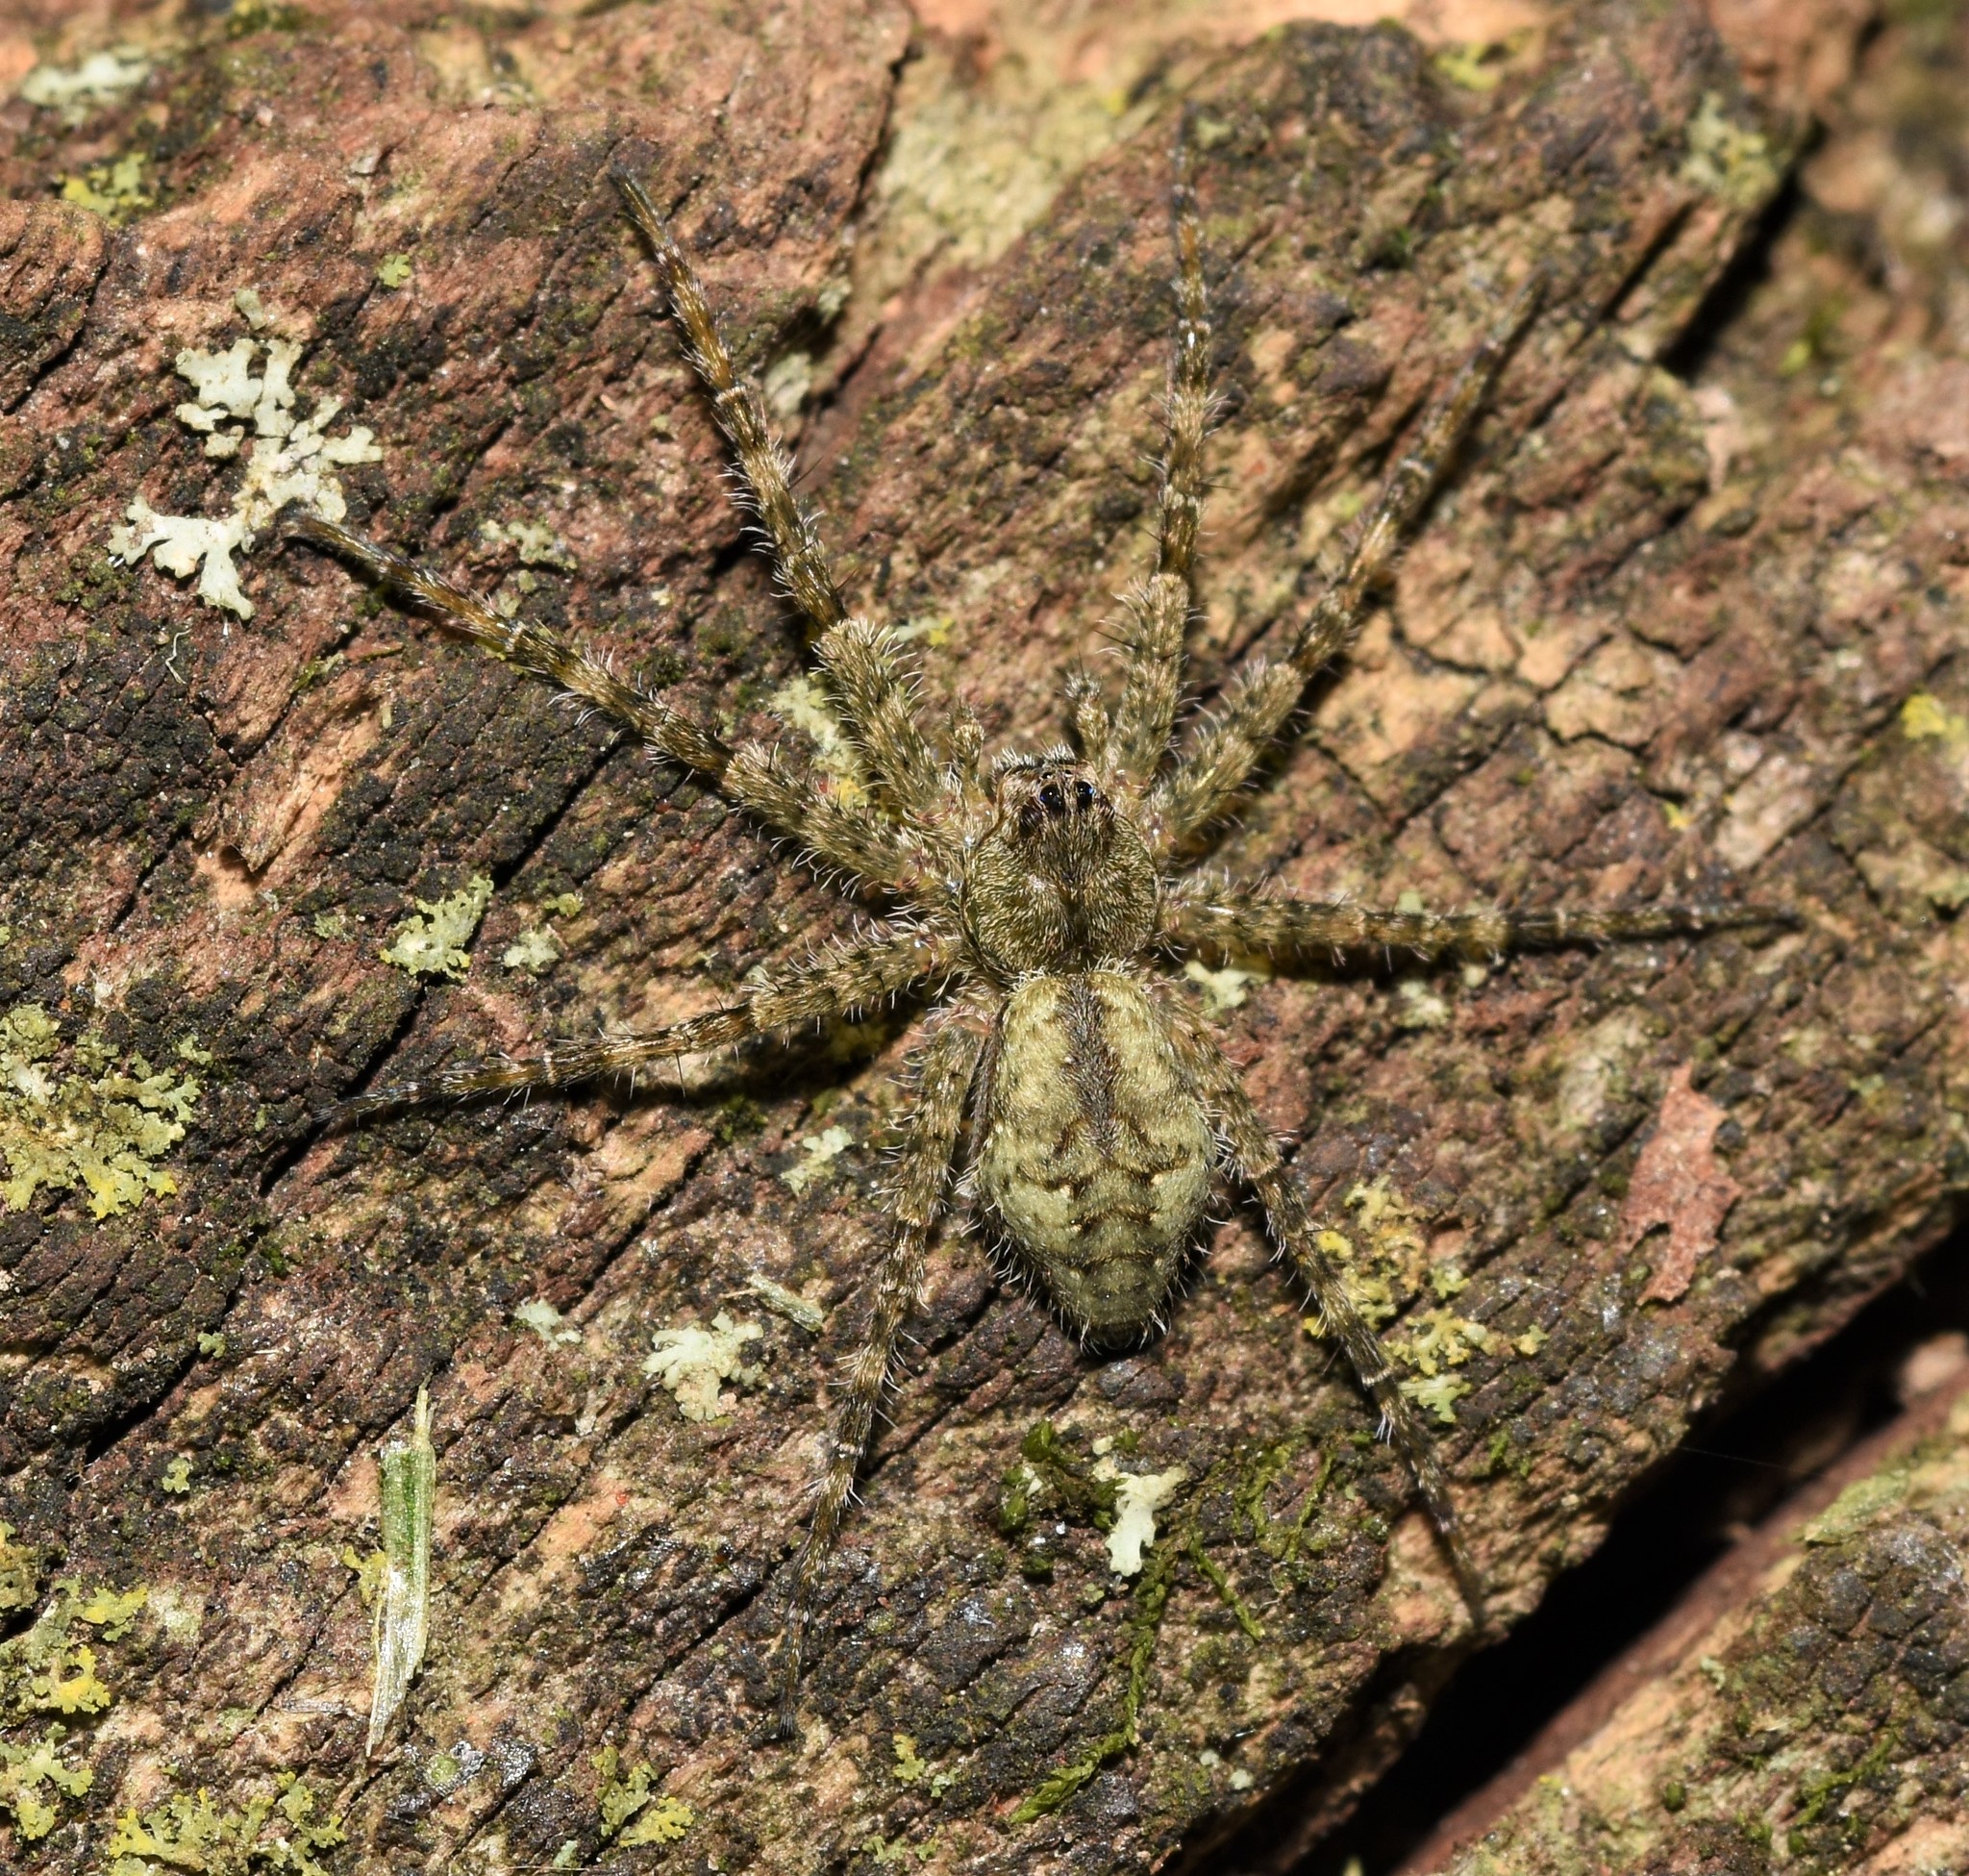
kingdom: Animalia
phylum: Arthropoda
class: Arachnida
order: Araneae
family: Pisauridae
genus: Dolomedes
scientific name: Dolomedes albineus
